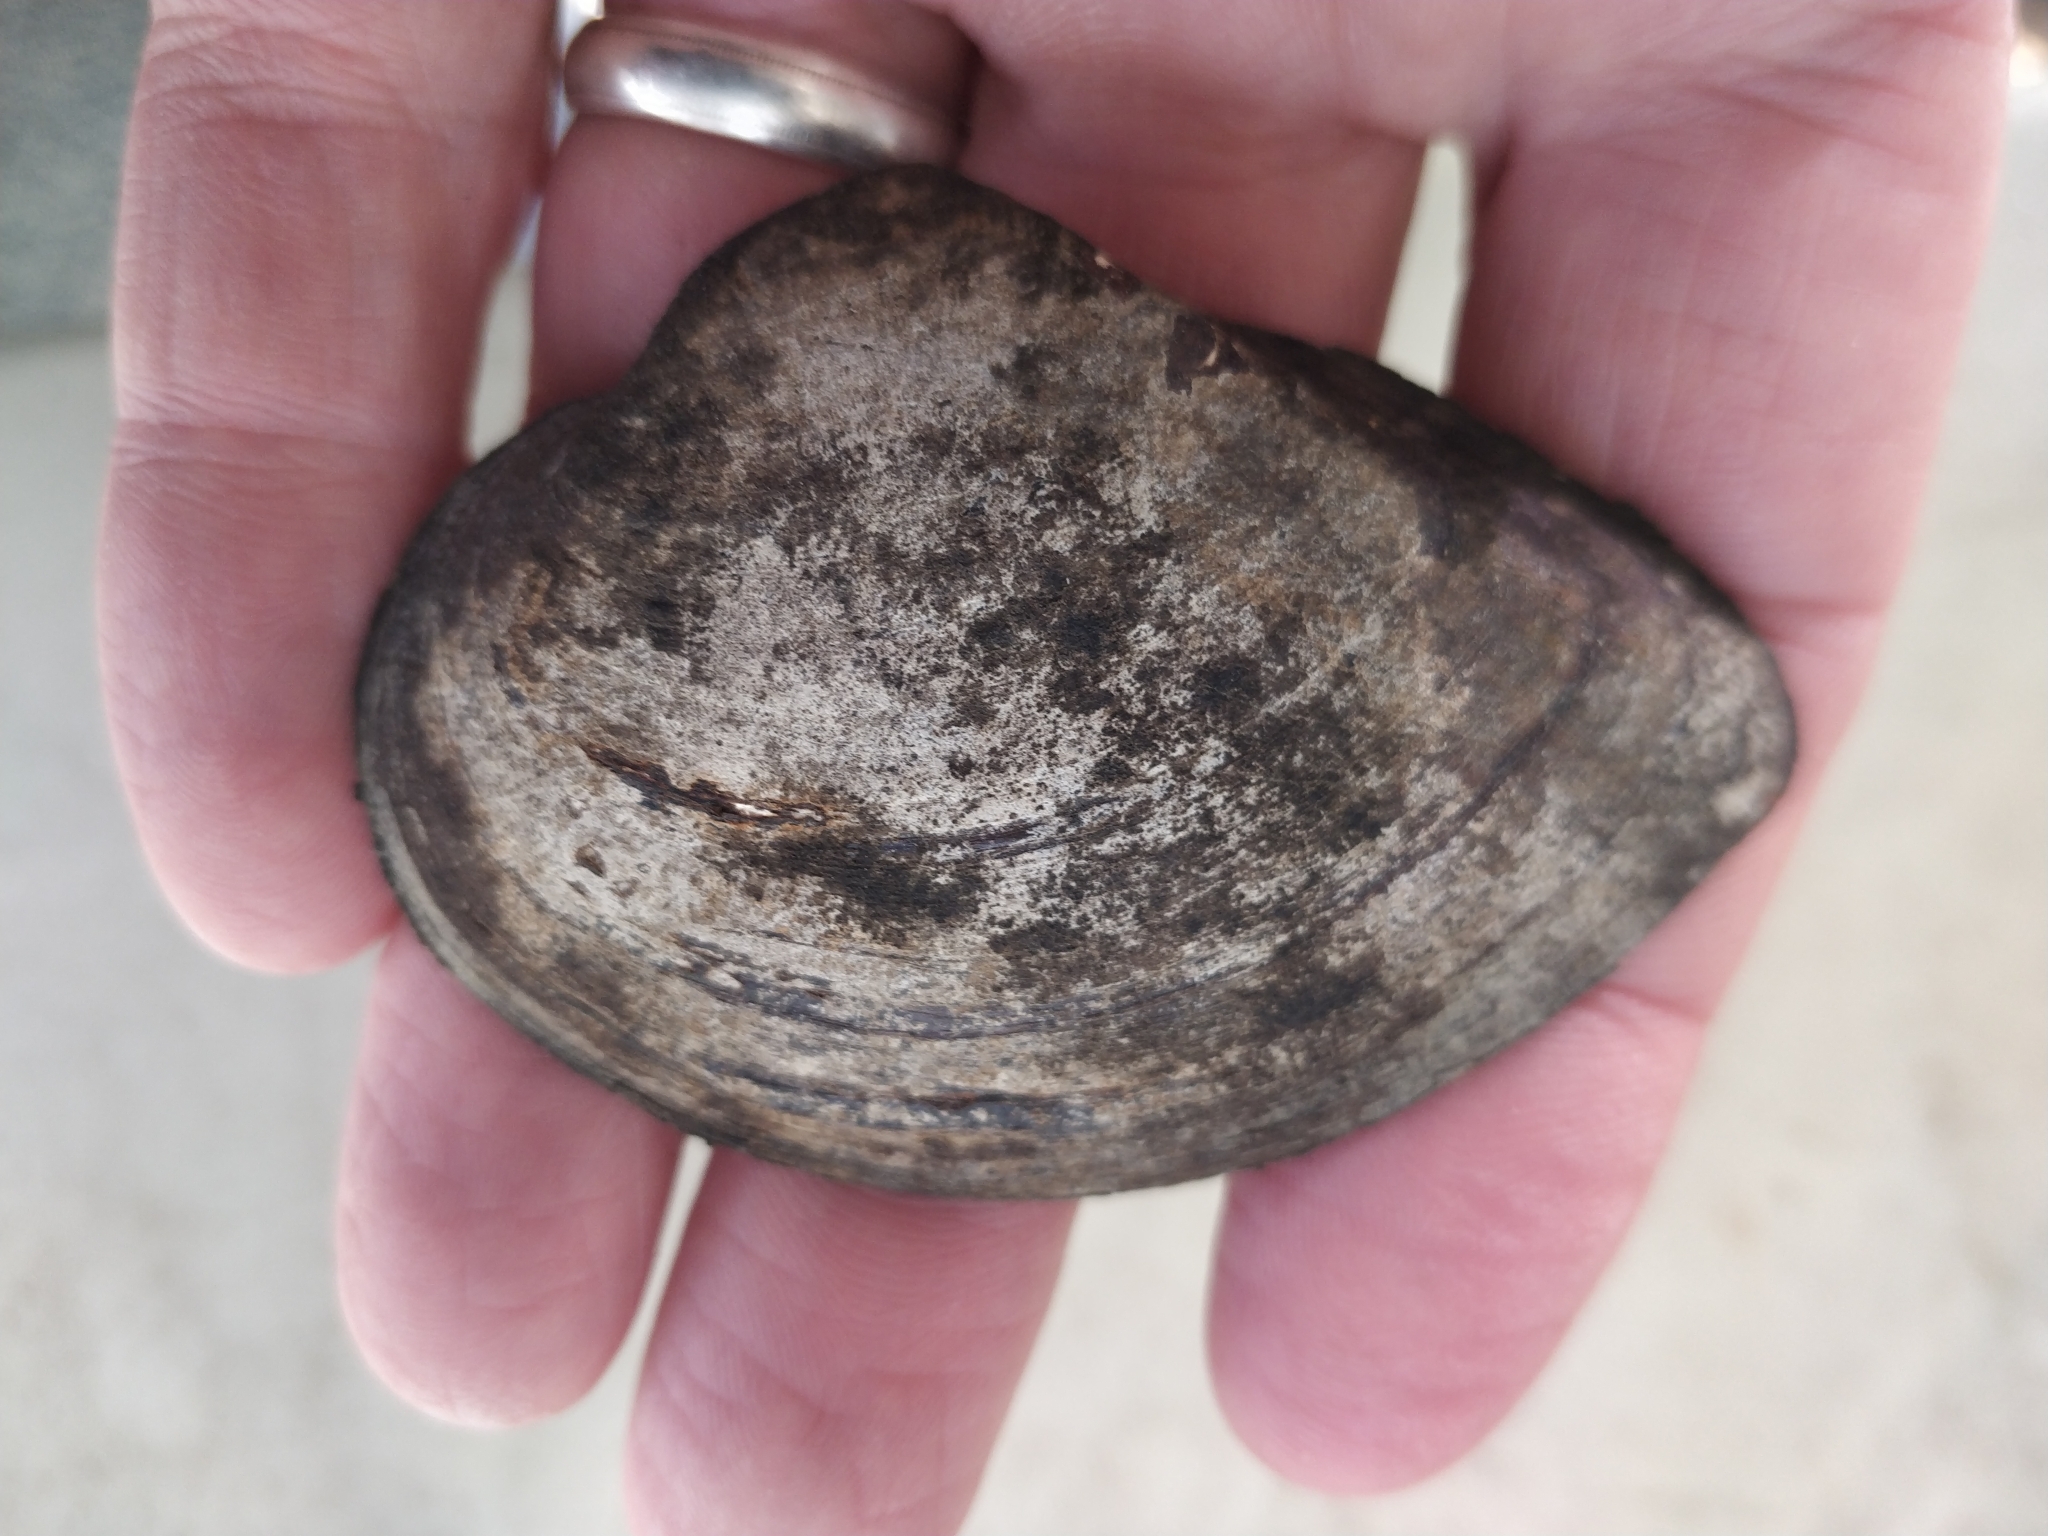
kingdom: Animalia
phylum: Mollusca
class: Bivalvia
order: Unionida
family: Unionidae
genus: Truncilla
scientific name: Truncilla truncata
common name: Deertoe
